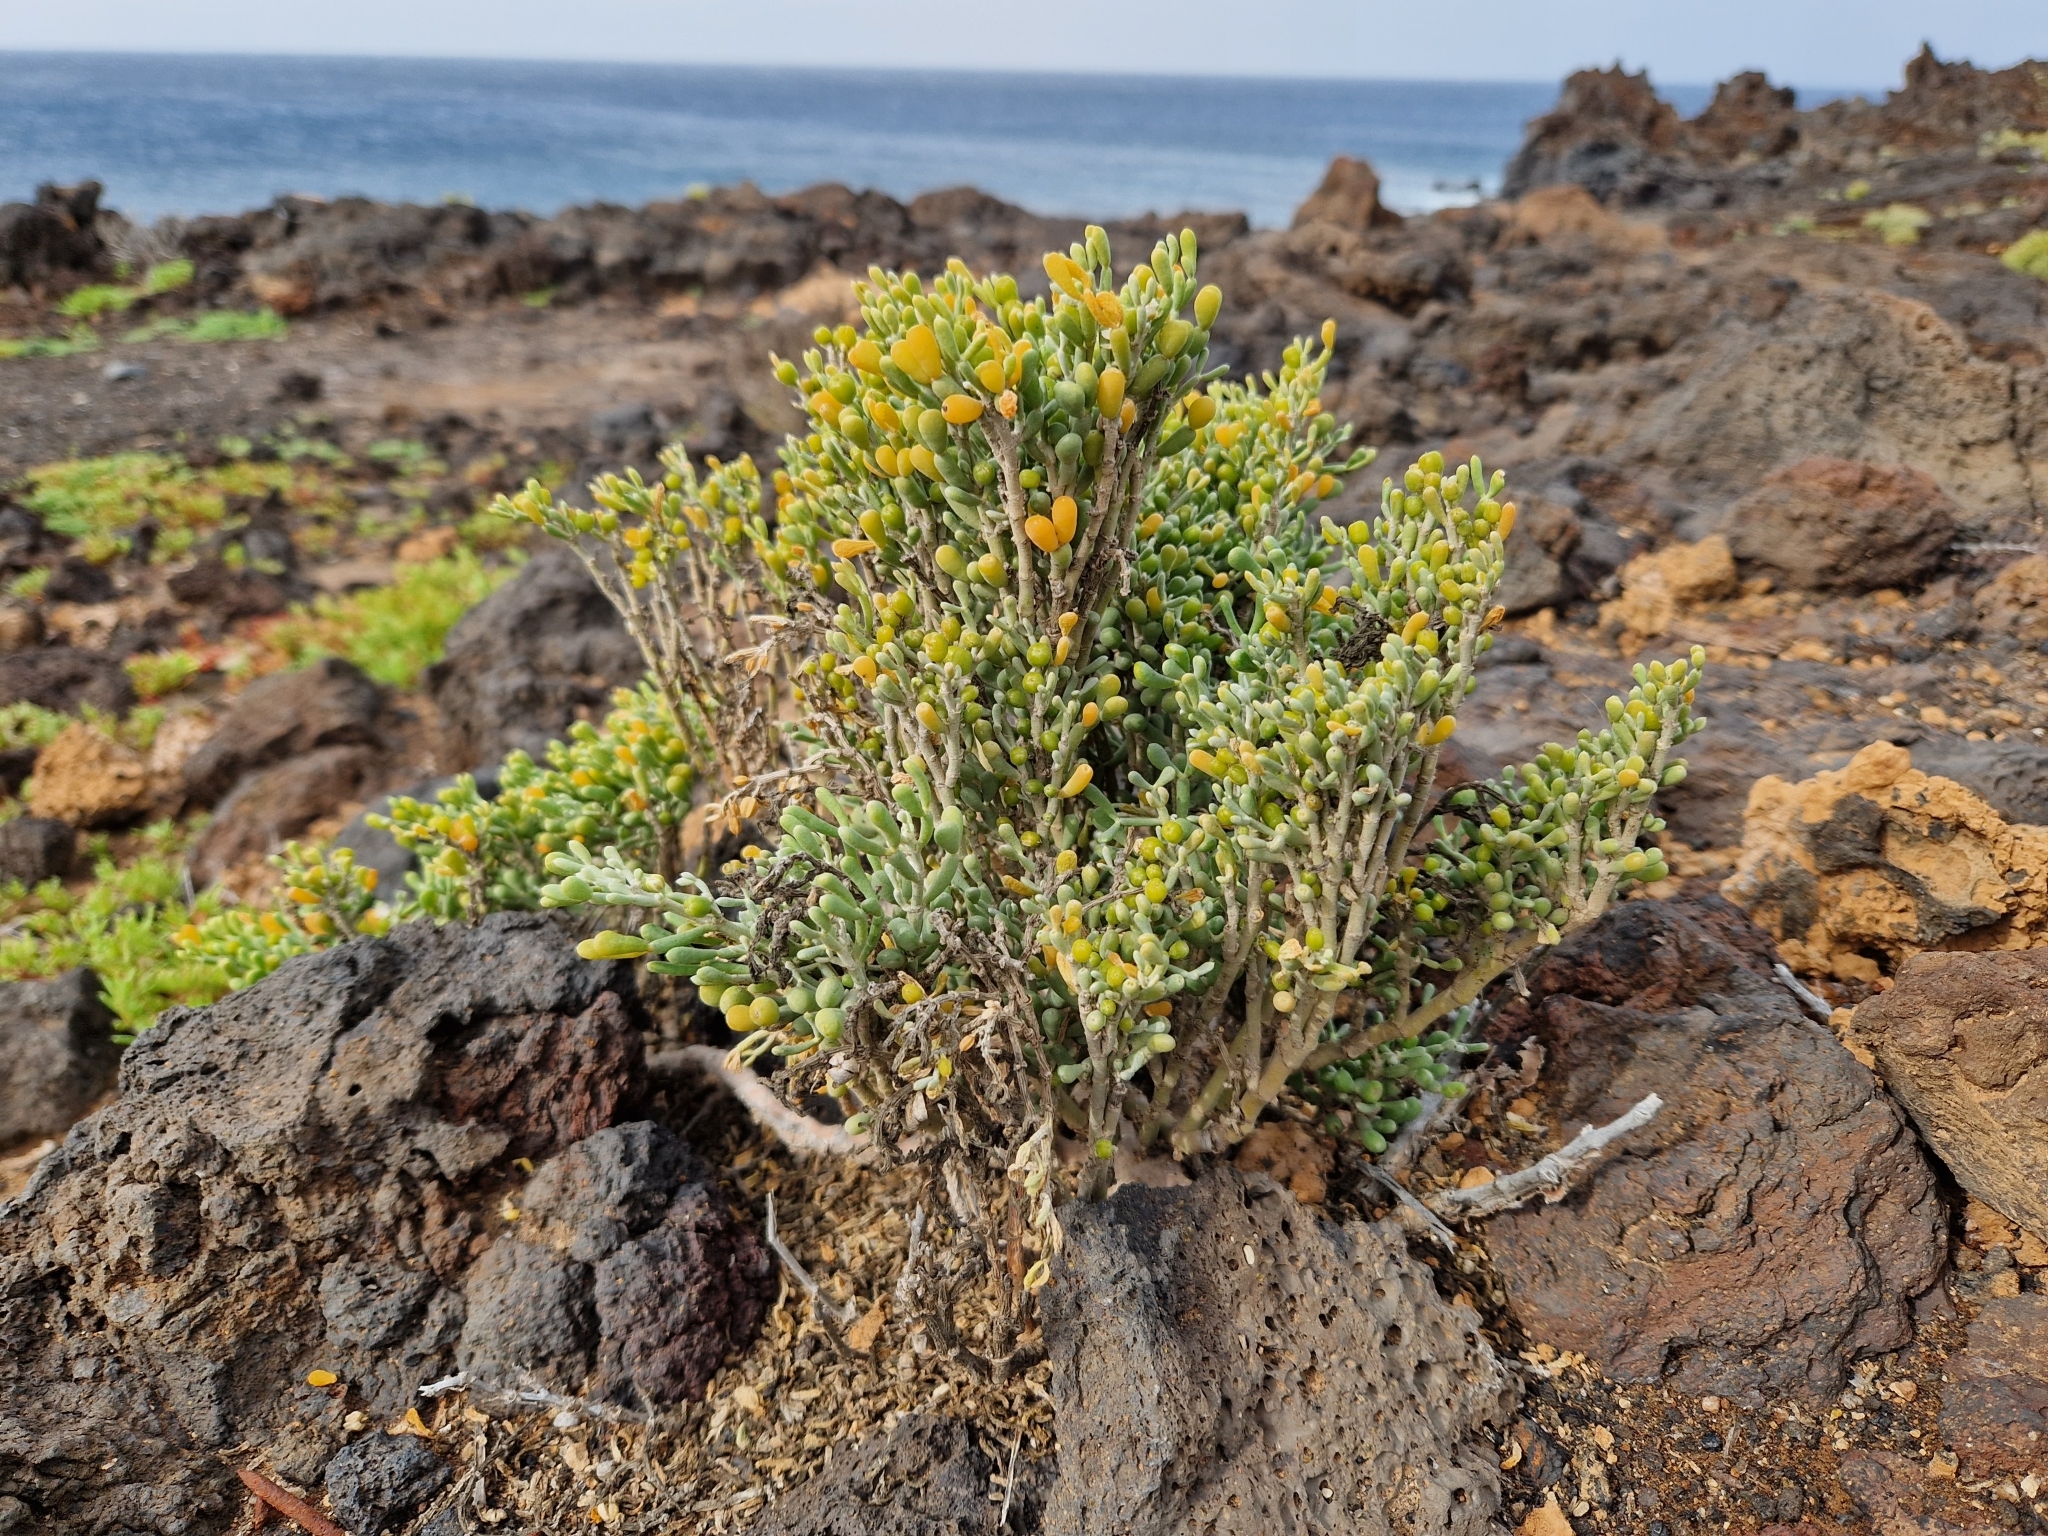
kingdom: Plantae
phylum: Tracheophyta
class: Magnoliopsida
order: Zygophyllales
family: Zygophyllaceae
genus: Tetraena
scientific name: Tetraena fontanesii
